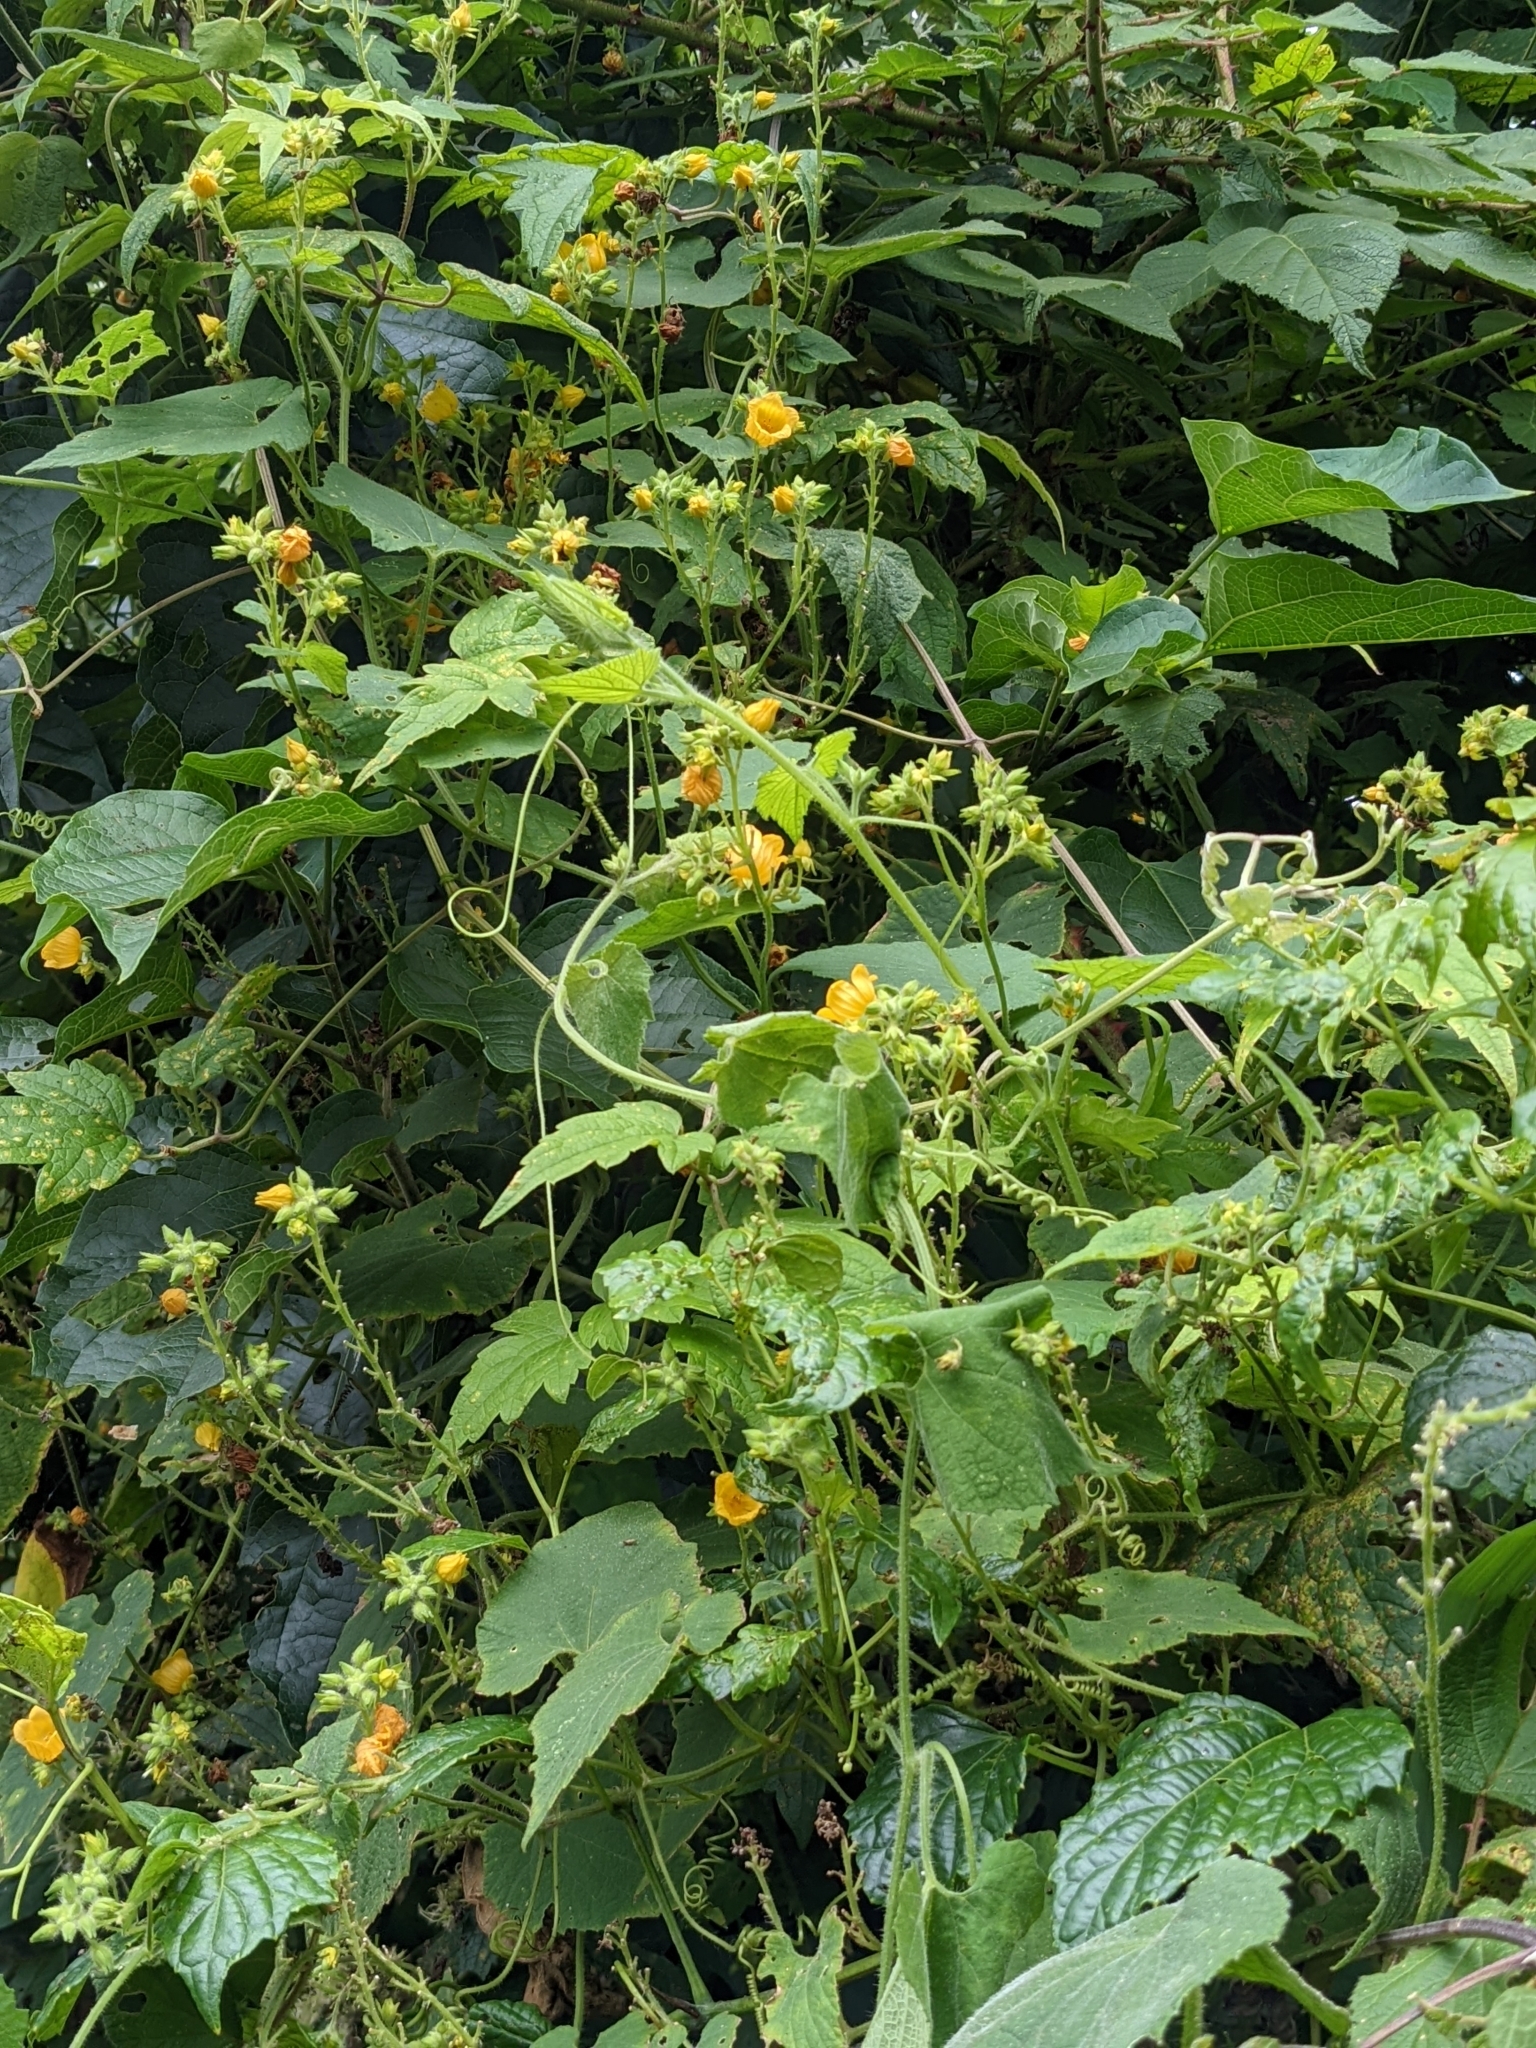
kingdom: Plantae
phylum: Tracheophyta
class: Magnoliopsida
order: Cucurbitales
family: Cucurbitaceae
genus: Thladiantha
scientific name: Thladiantha nudiflora
